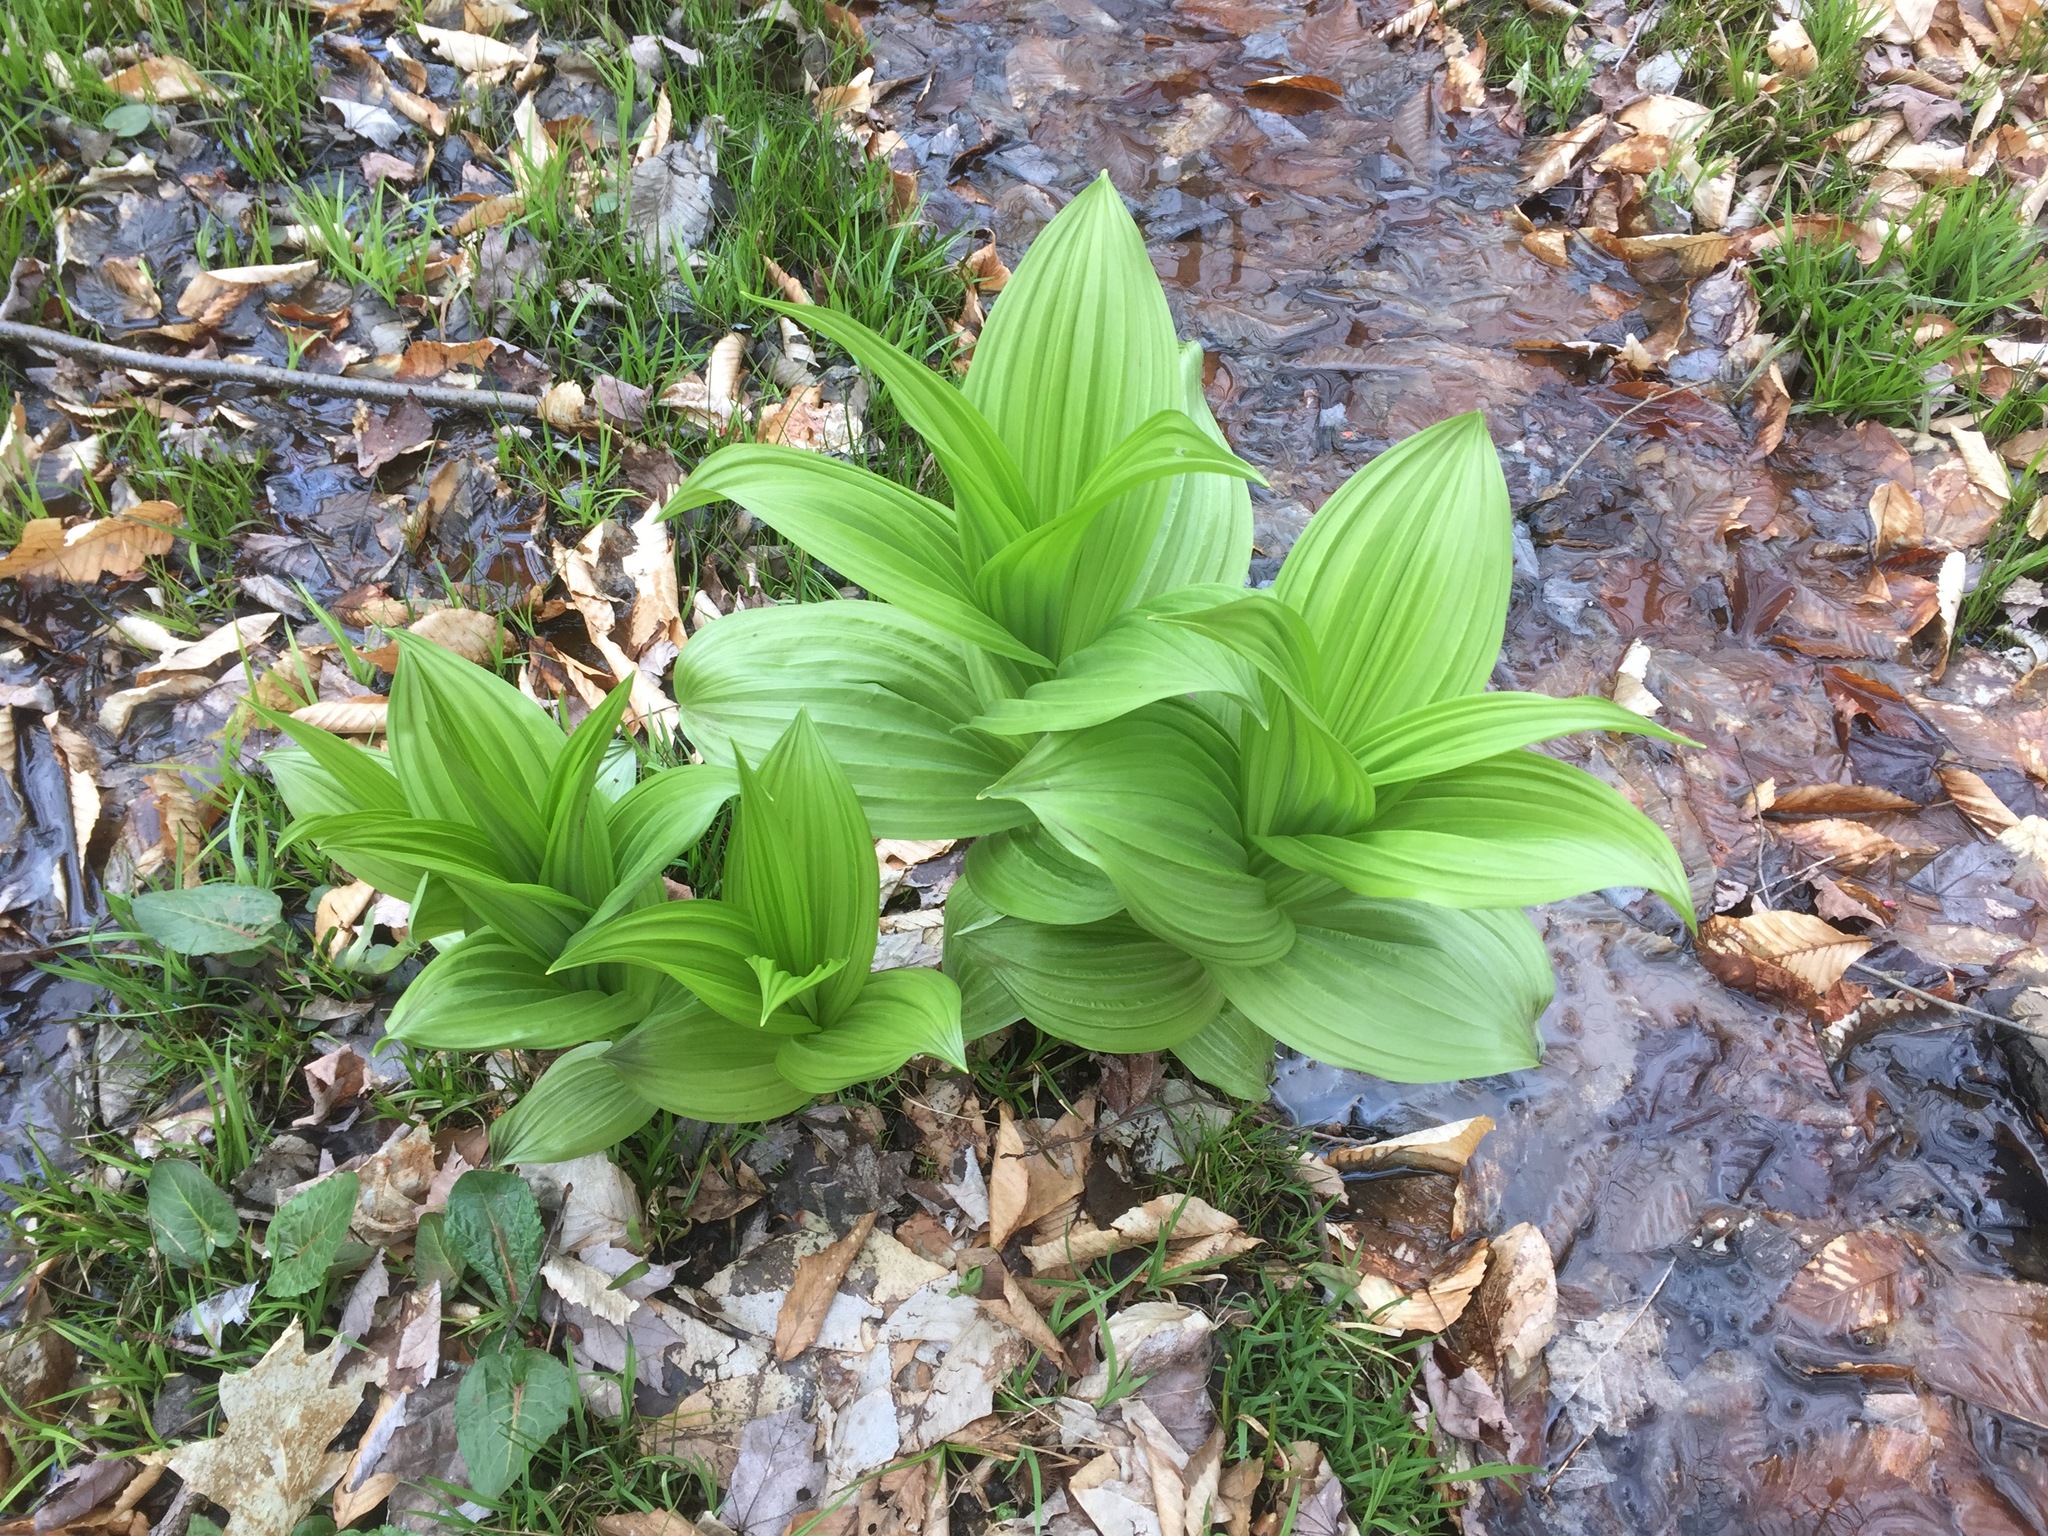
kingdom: Plantae
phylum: Tracheophyta
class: Liliopsida
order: Liliales
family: Melanthiaceae
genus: Veratrum
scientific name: Veratrum viride
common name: American false hellebore
